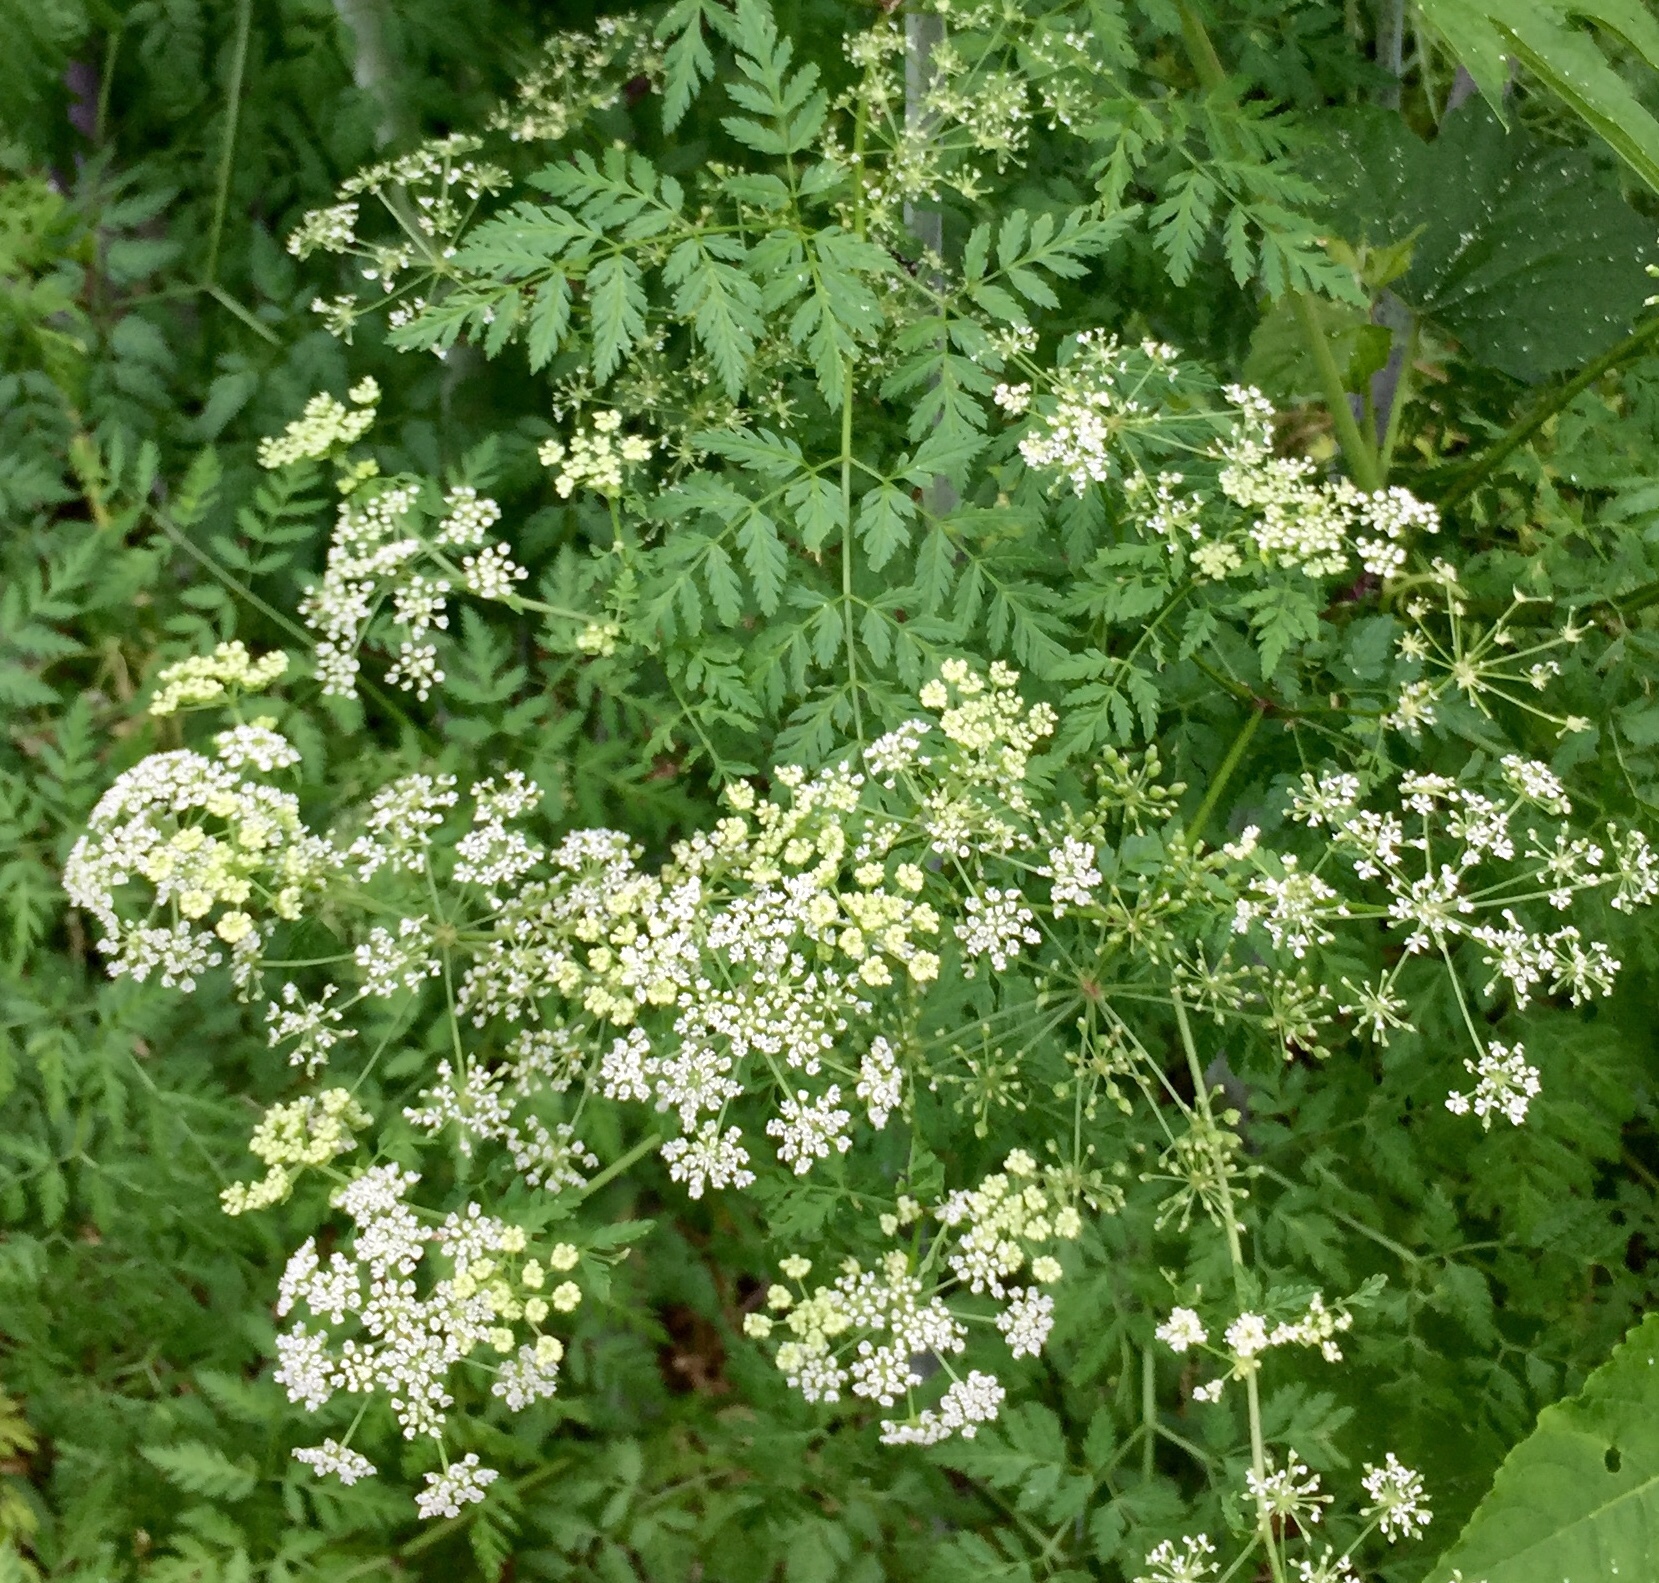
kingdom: Plantae
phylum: Tracheophyta
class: Magnoliopsida
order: Apiales
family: Apiaceae
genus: Conium
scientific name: Conium maculatum
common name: Hemlock
